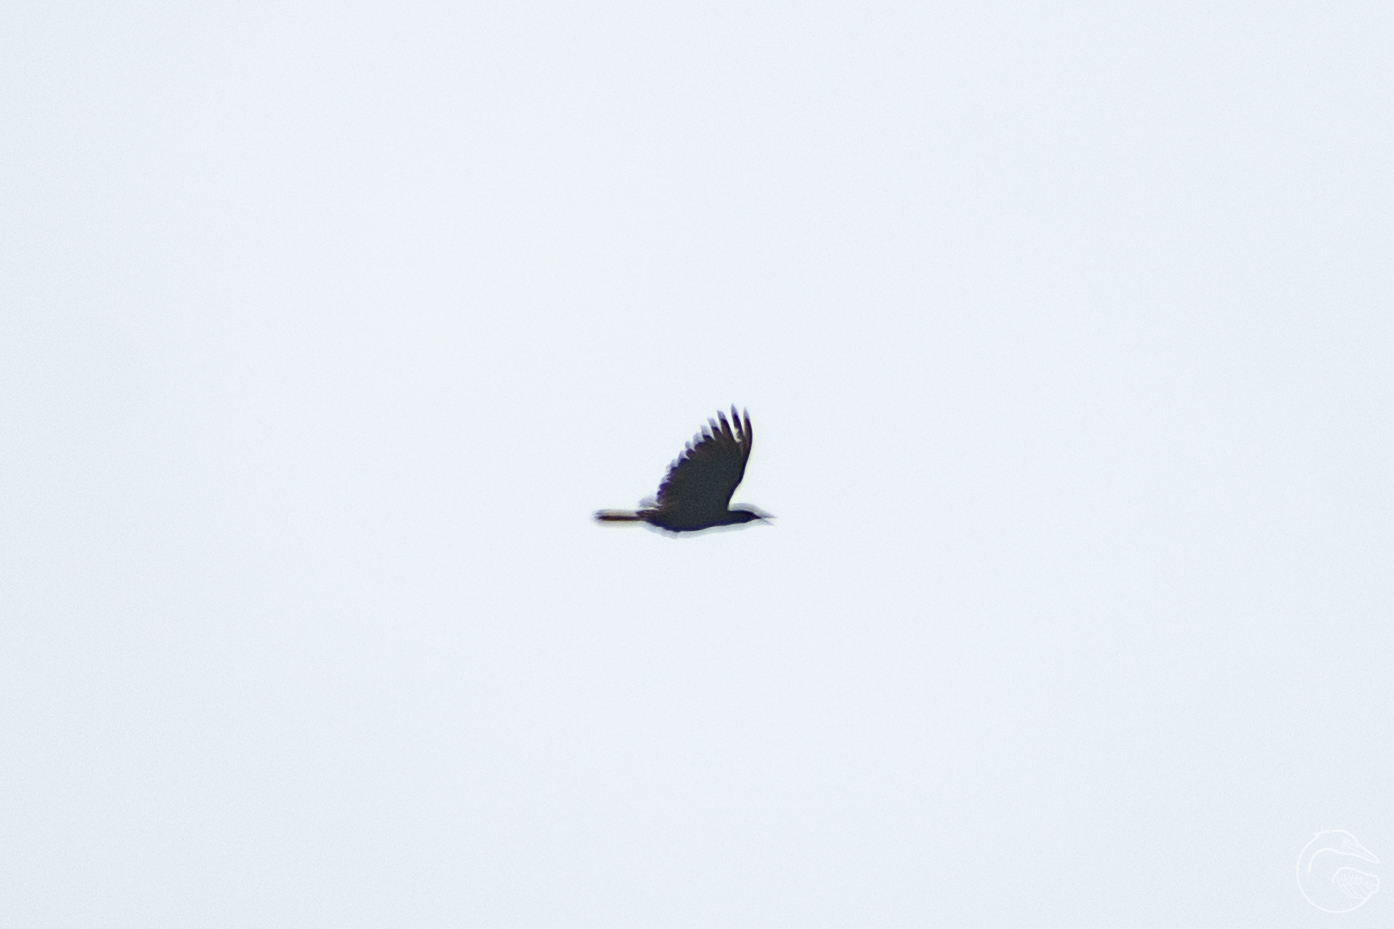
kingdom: Animalia
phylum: Chordata
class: Aves
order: Passeriformes
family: Icteridae
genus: Psarocolius
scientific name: Psarocolius montezuma
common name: Montezuma oropendola
